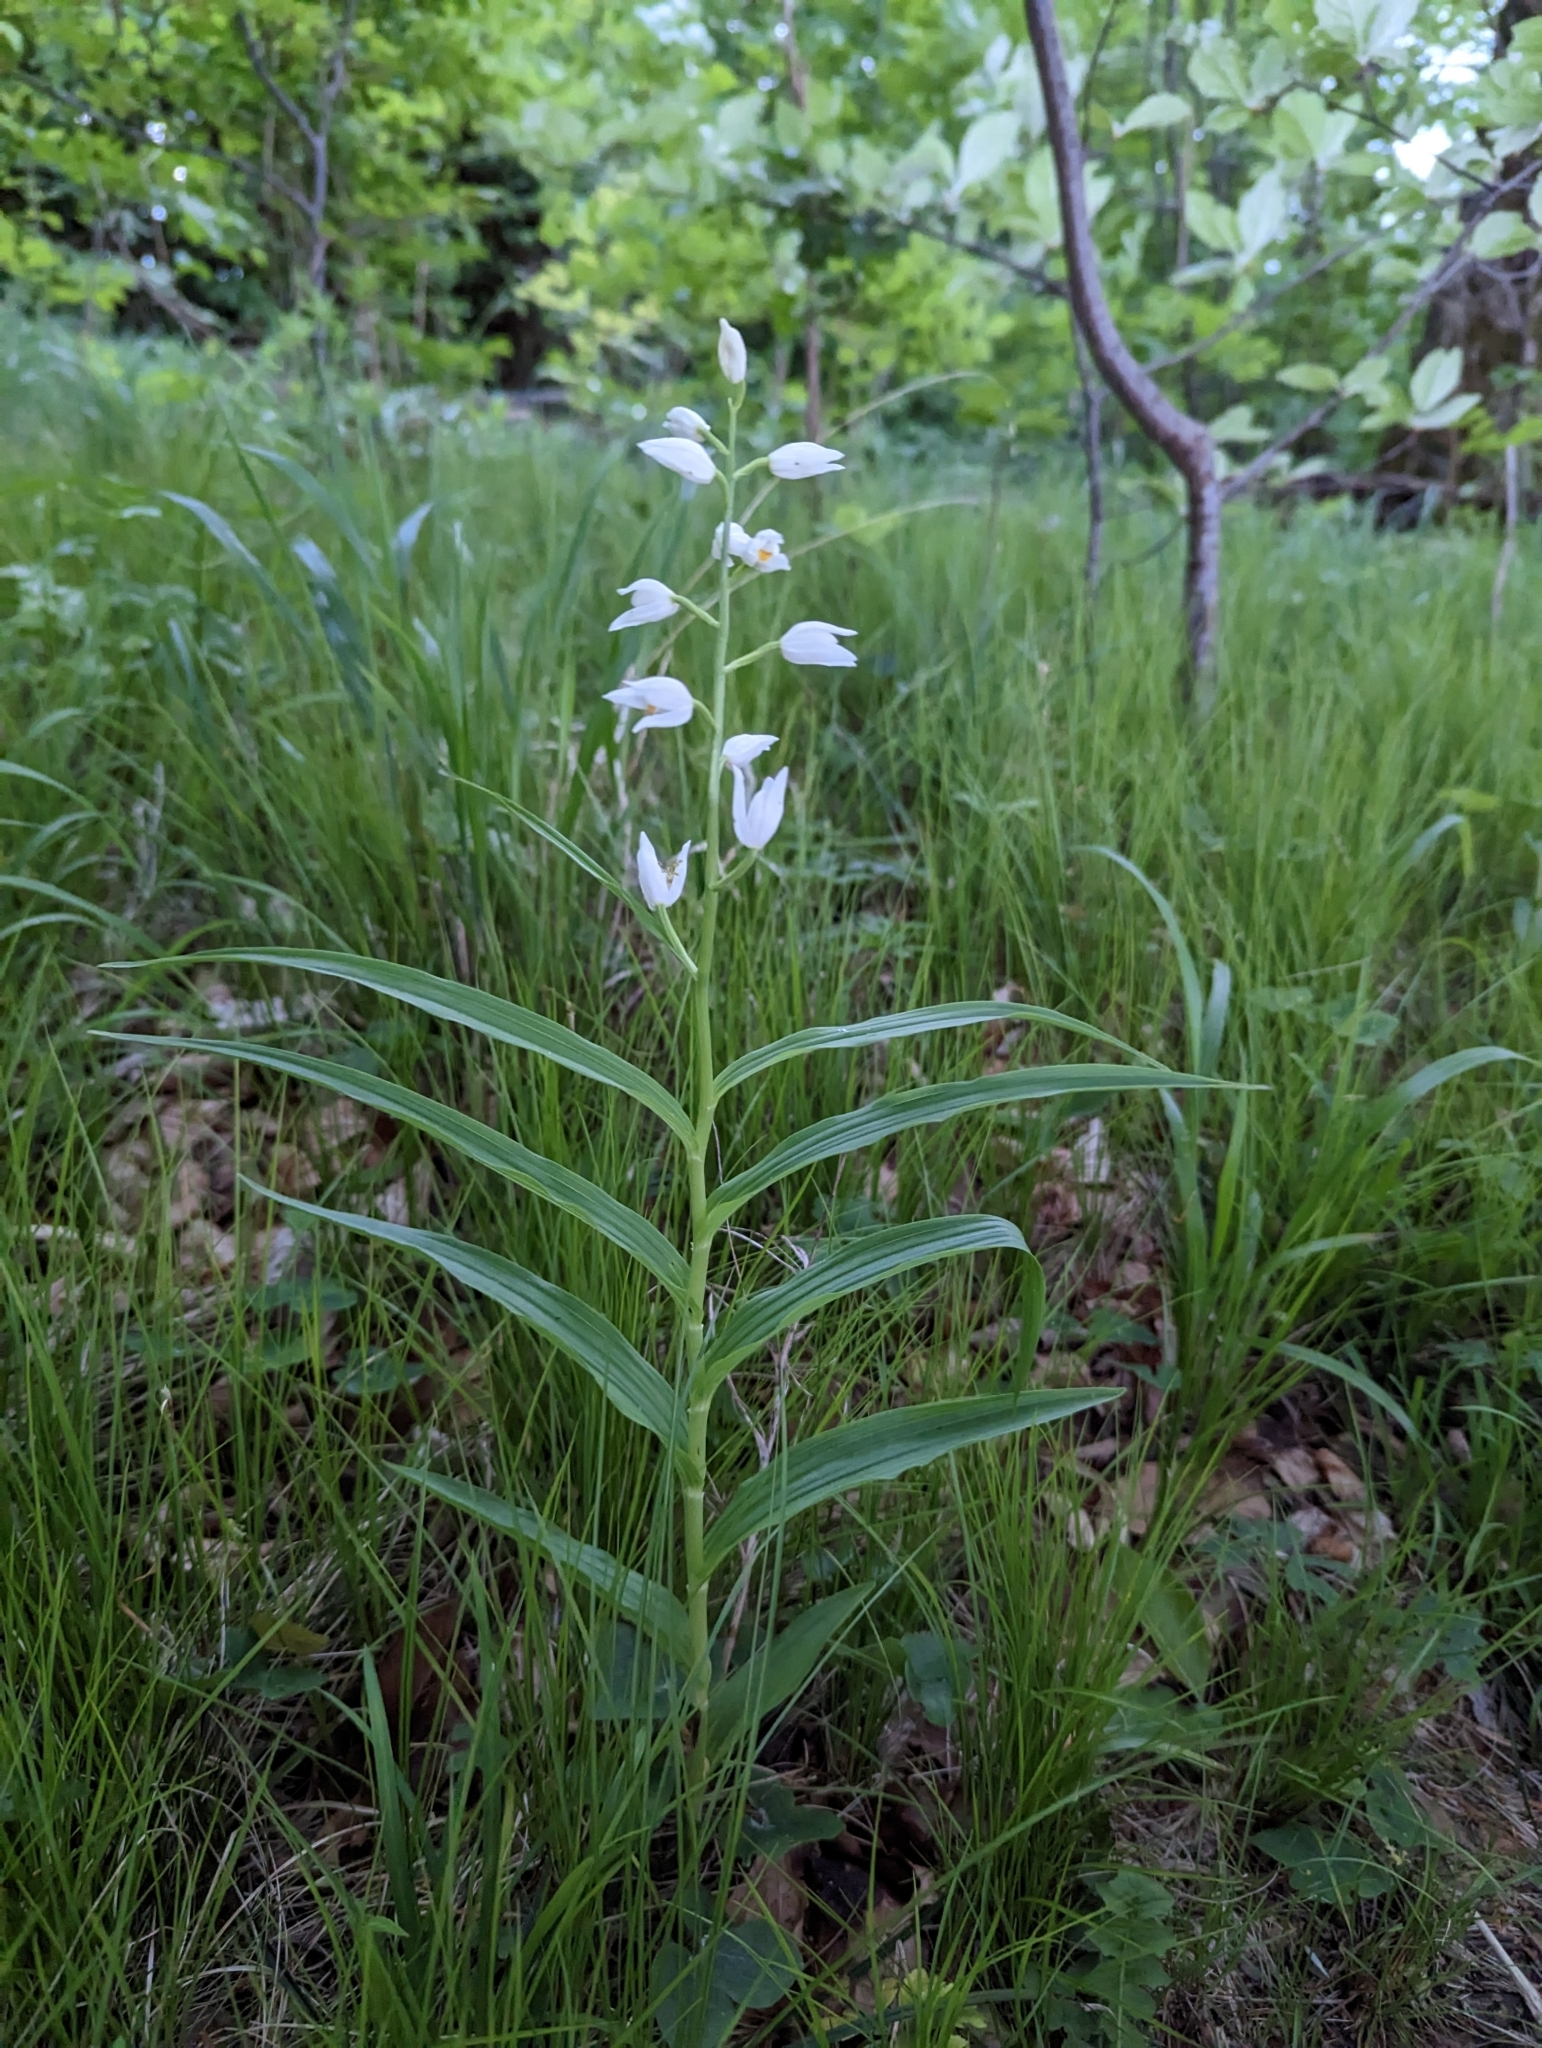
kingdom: Plantae
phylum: Tracheophyta
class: Liliopsida
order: Asparagales
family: Orchidaceae
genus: Cephalanthera
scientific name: Cephalanthera longifolia
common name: Narrow-leaved helleborine
